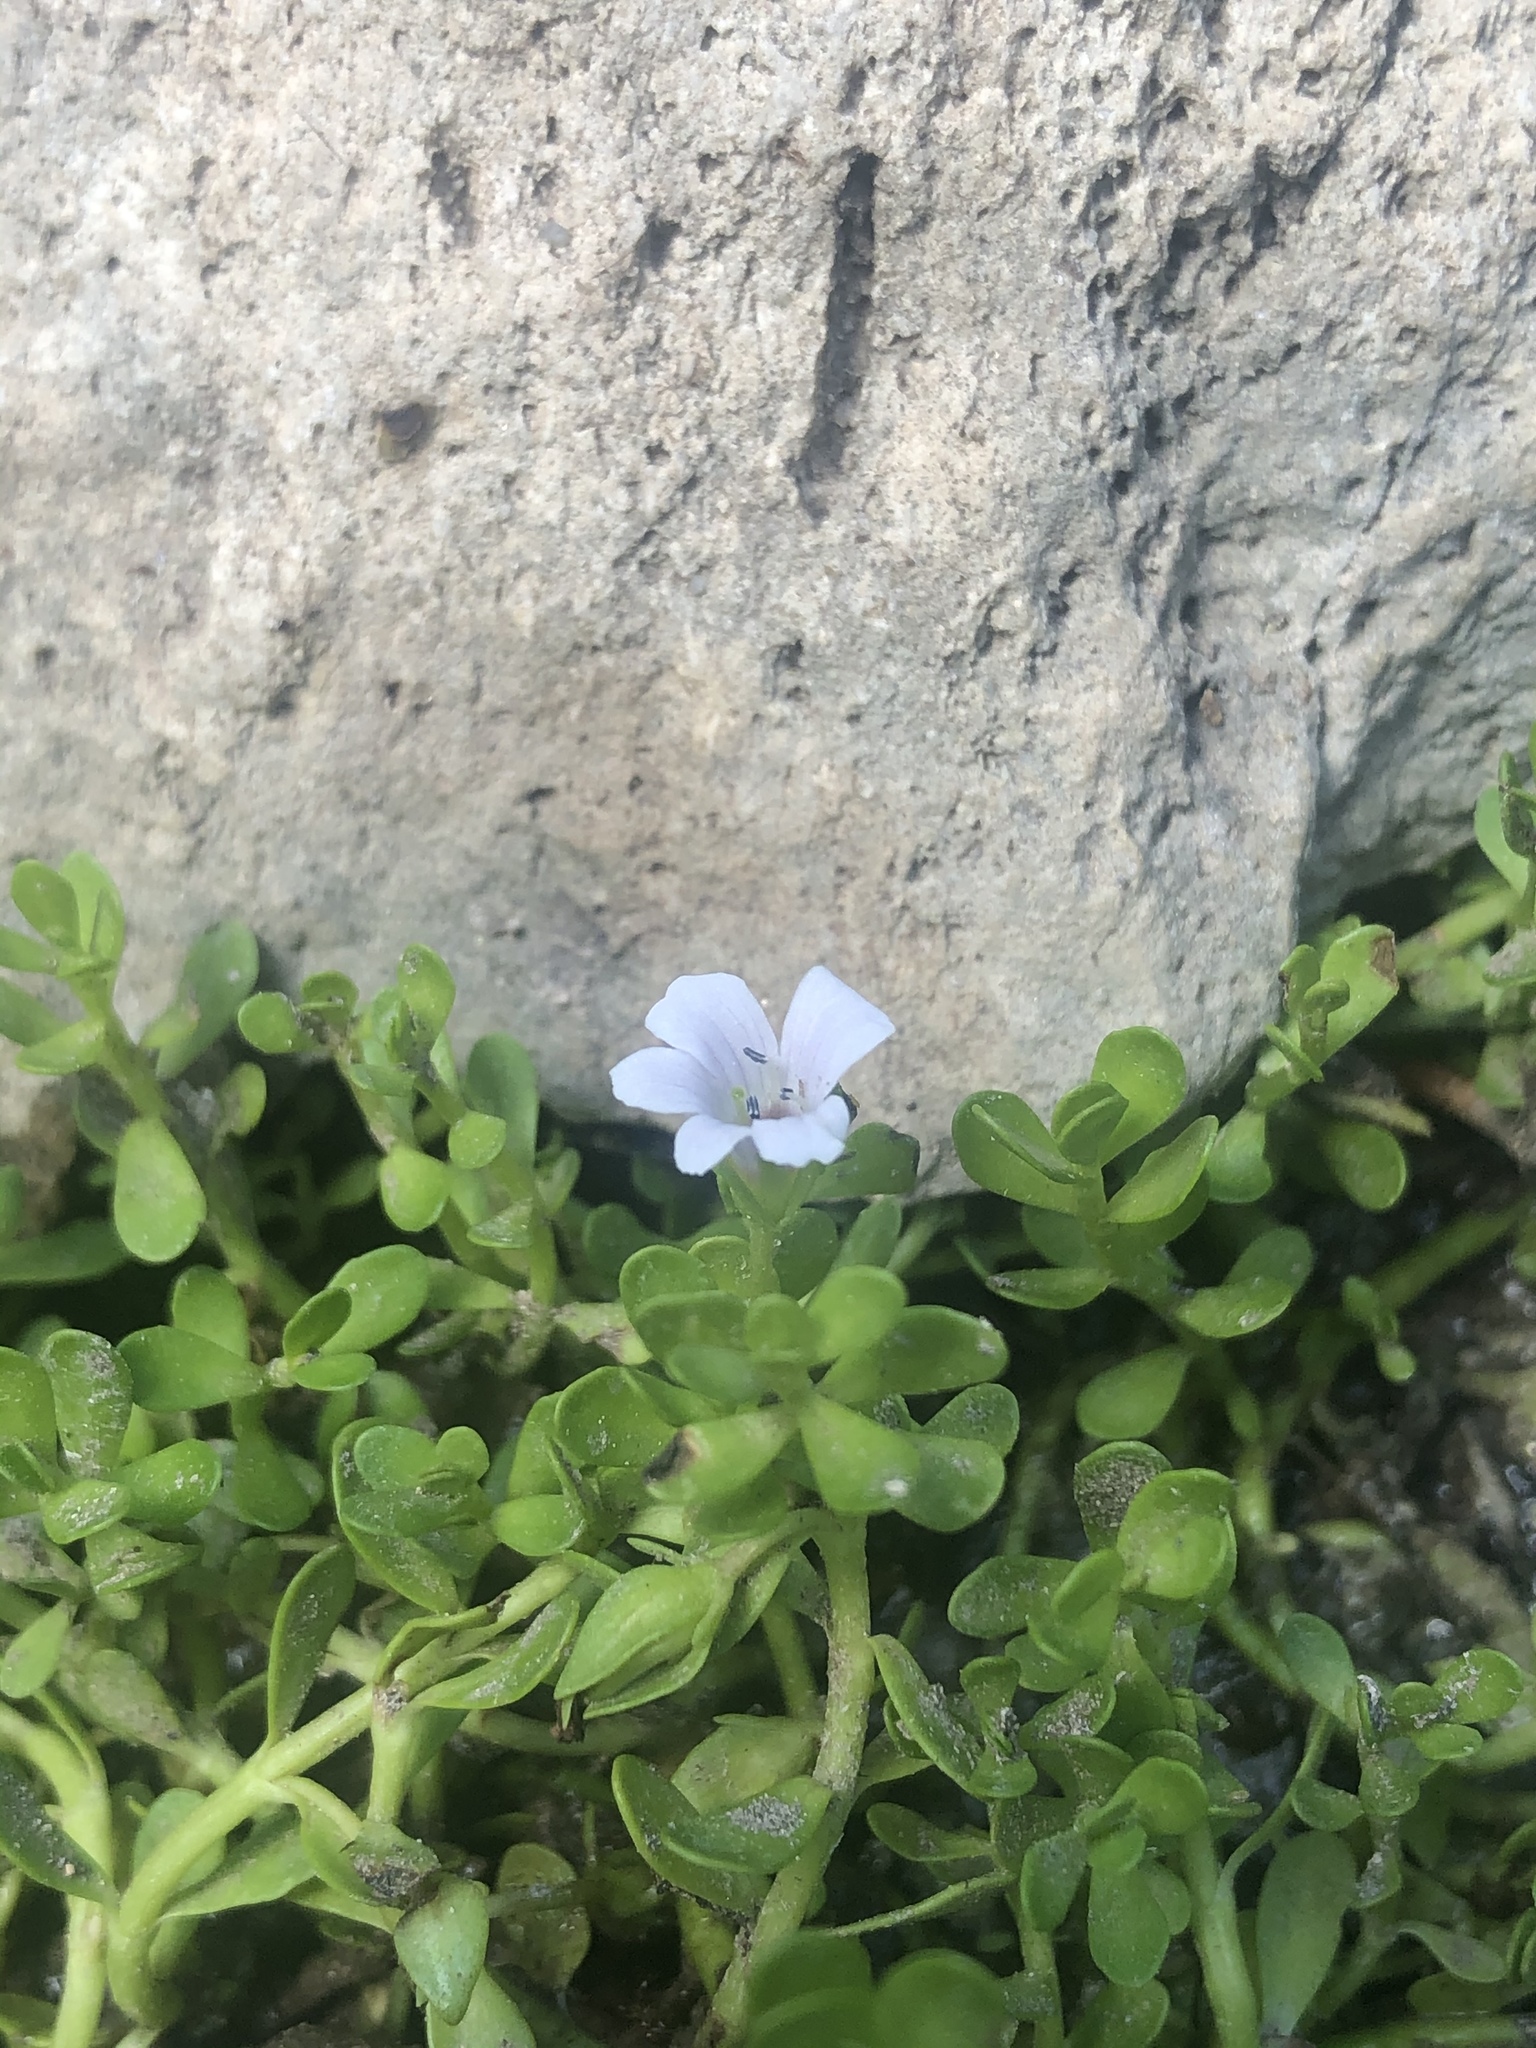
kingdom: Plantae
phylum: Tracheophyta
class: Magnoliopsida
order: Lamiales
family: Plantaginaceae
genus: Bacopa
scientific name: Bacopa monnieri
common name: Indian-pennywort
